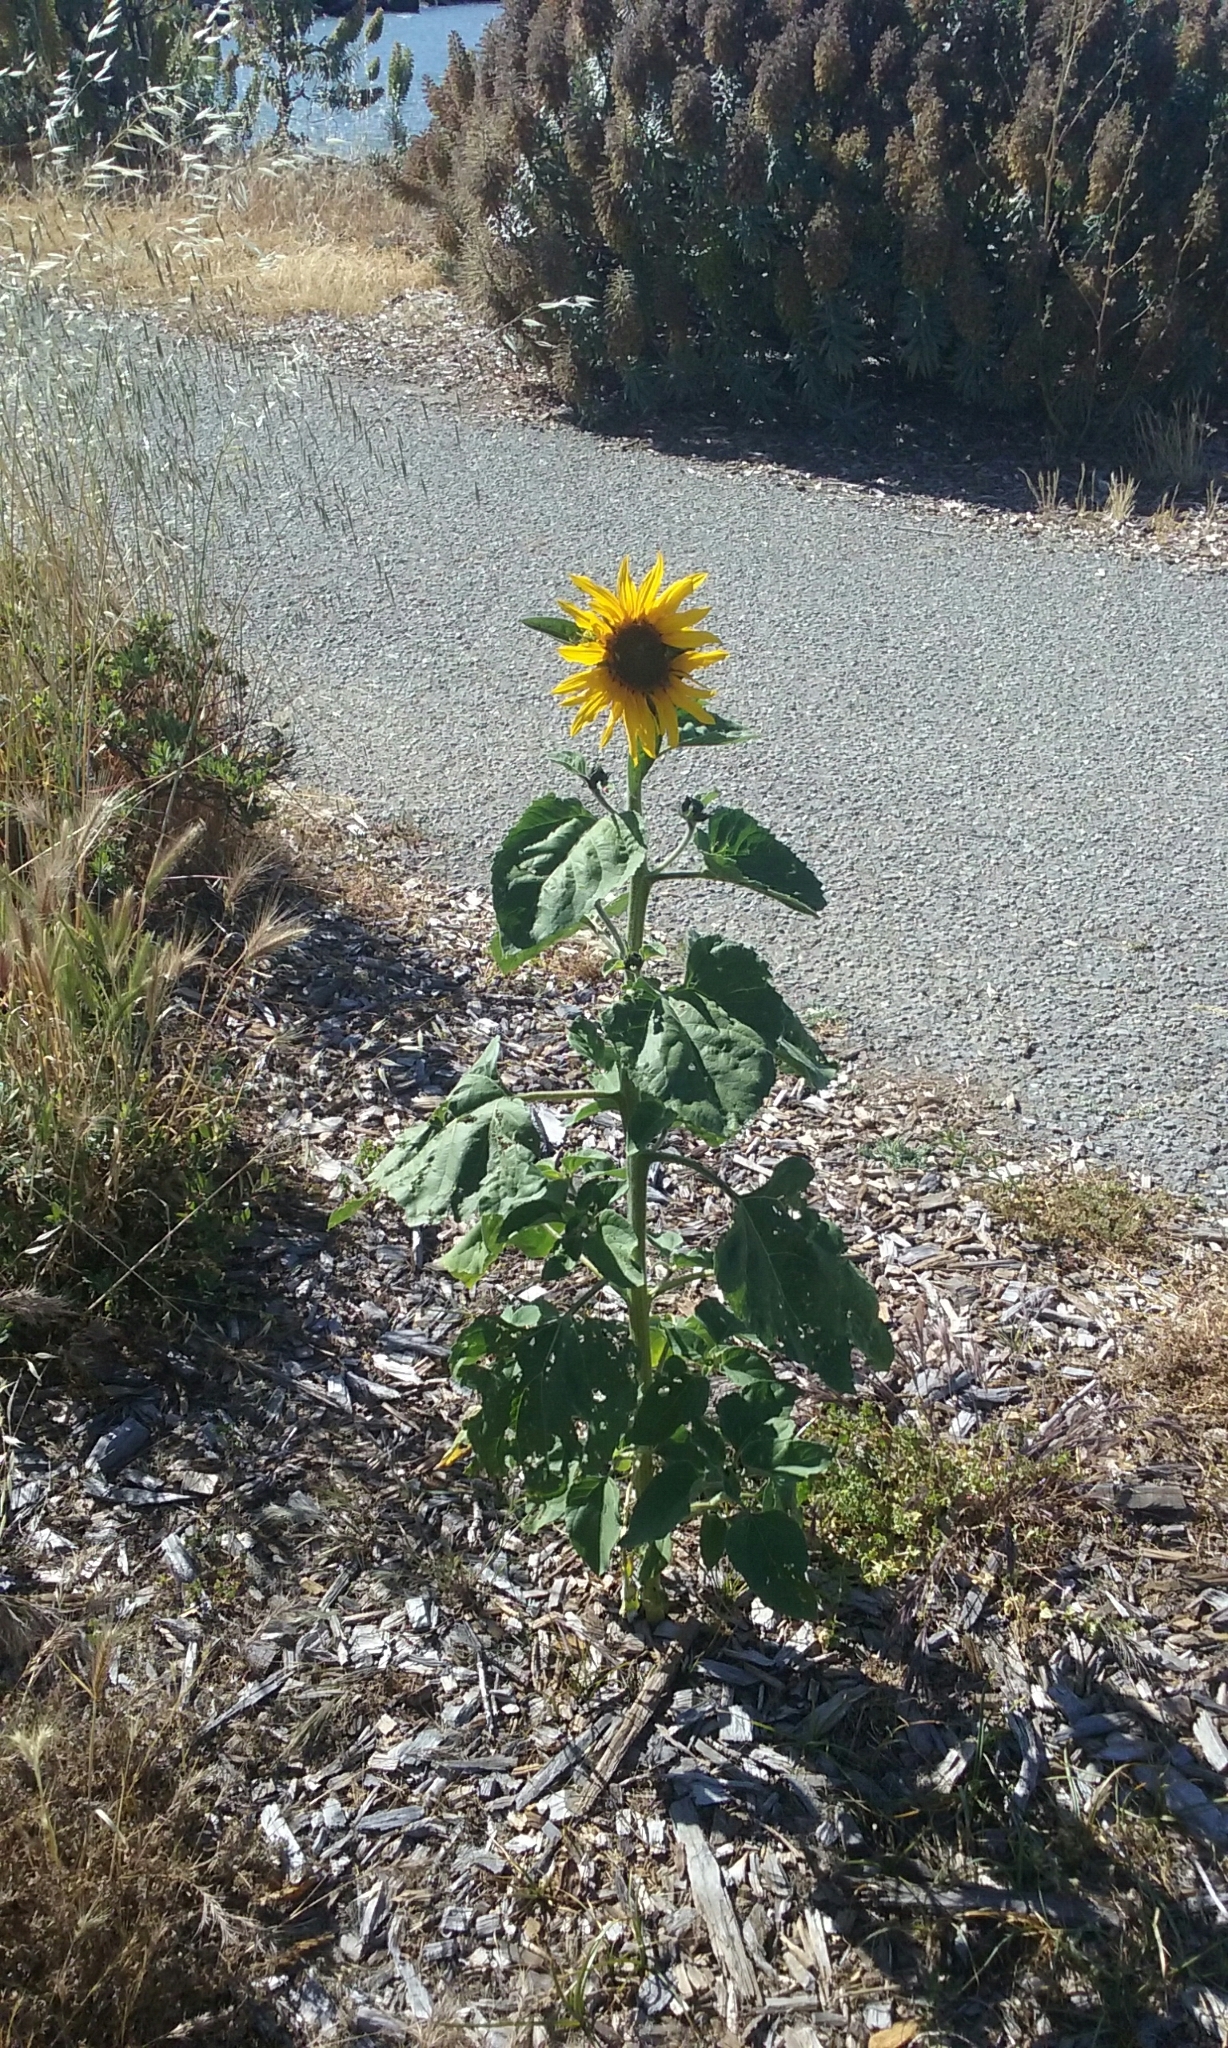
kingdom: Plantae
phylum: Tracheophyta
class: Magnoliopsida
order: Asterales
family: Asteraceae
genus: Helianthus
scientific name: Helianthus annuus
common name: Sunflower
